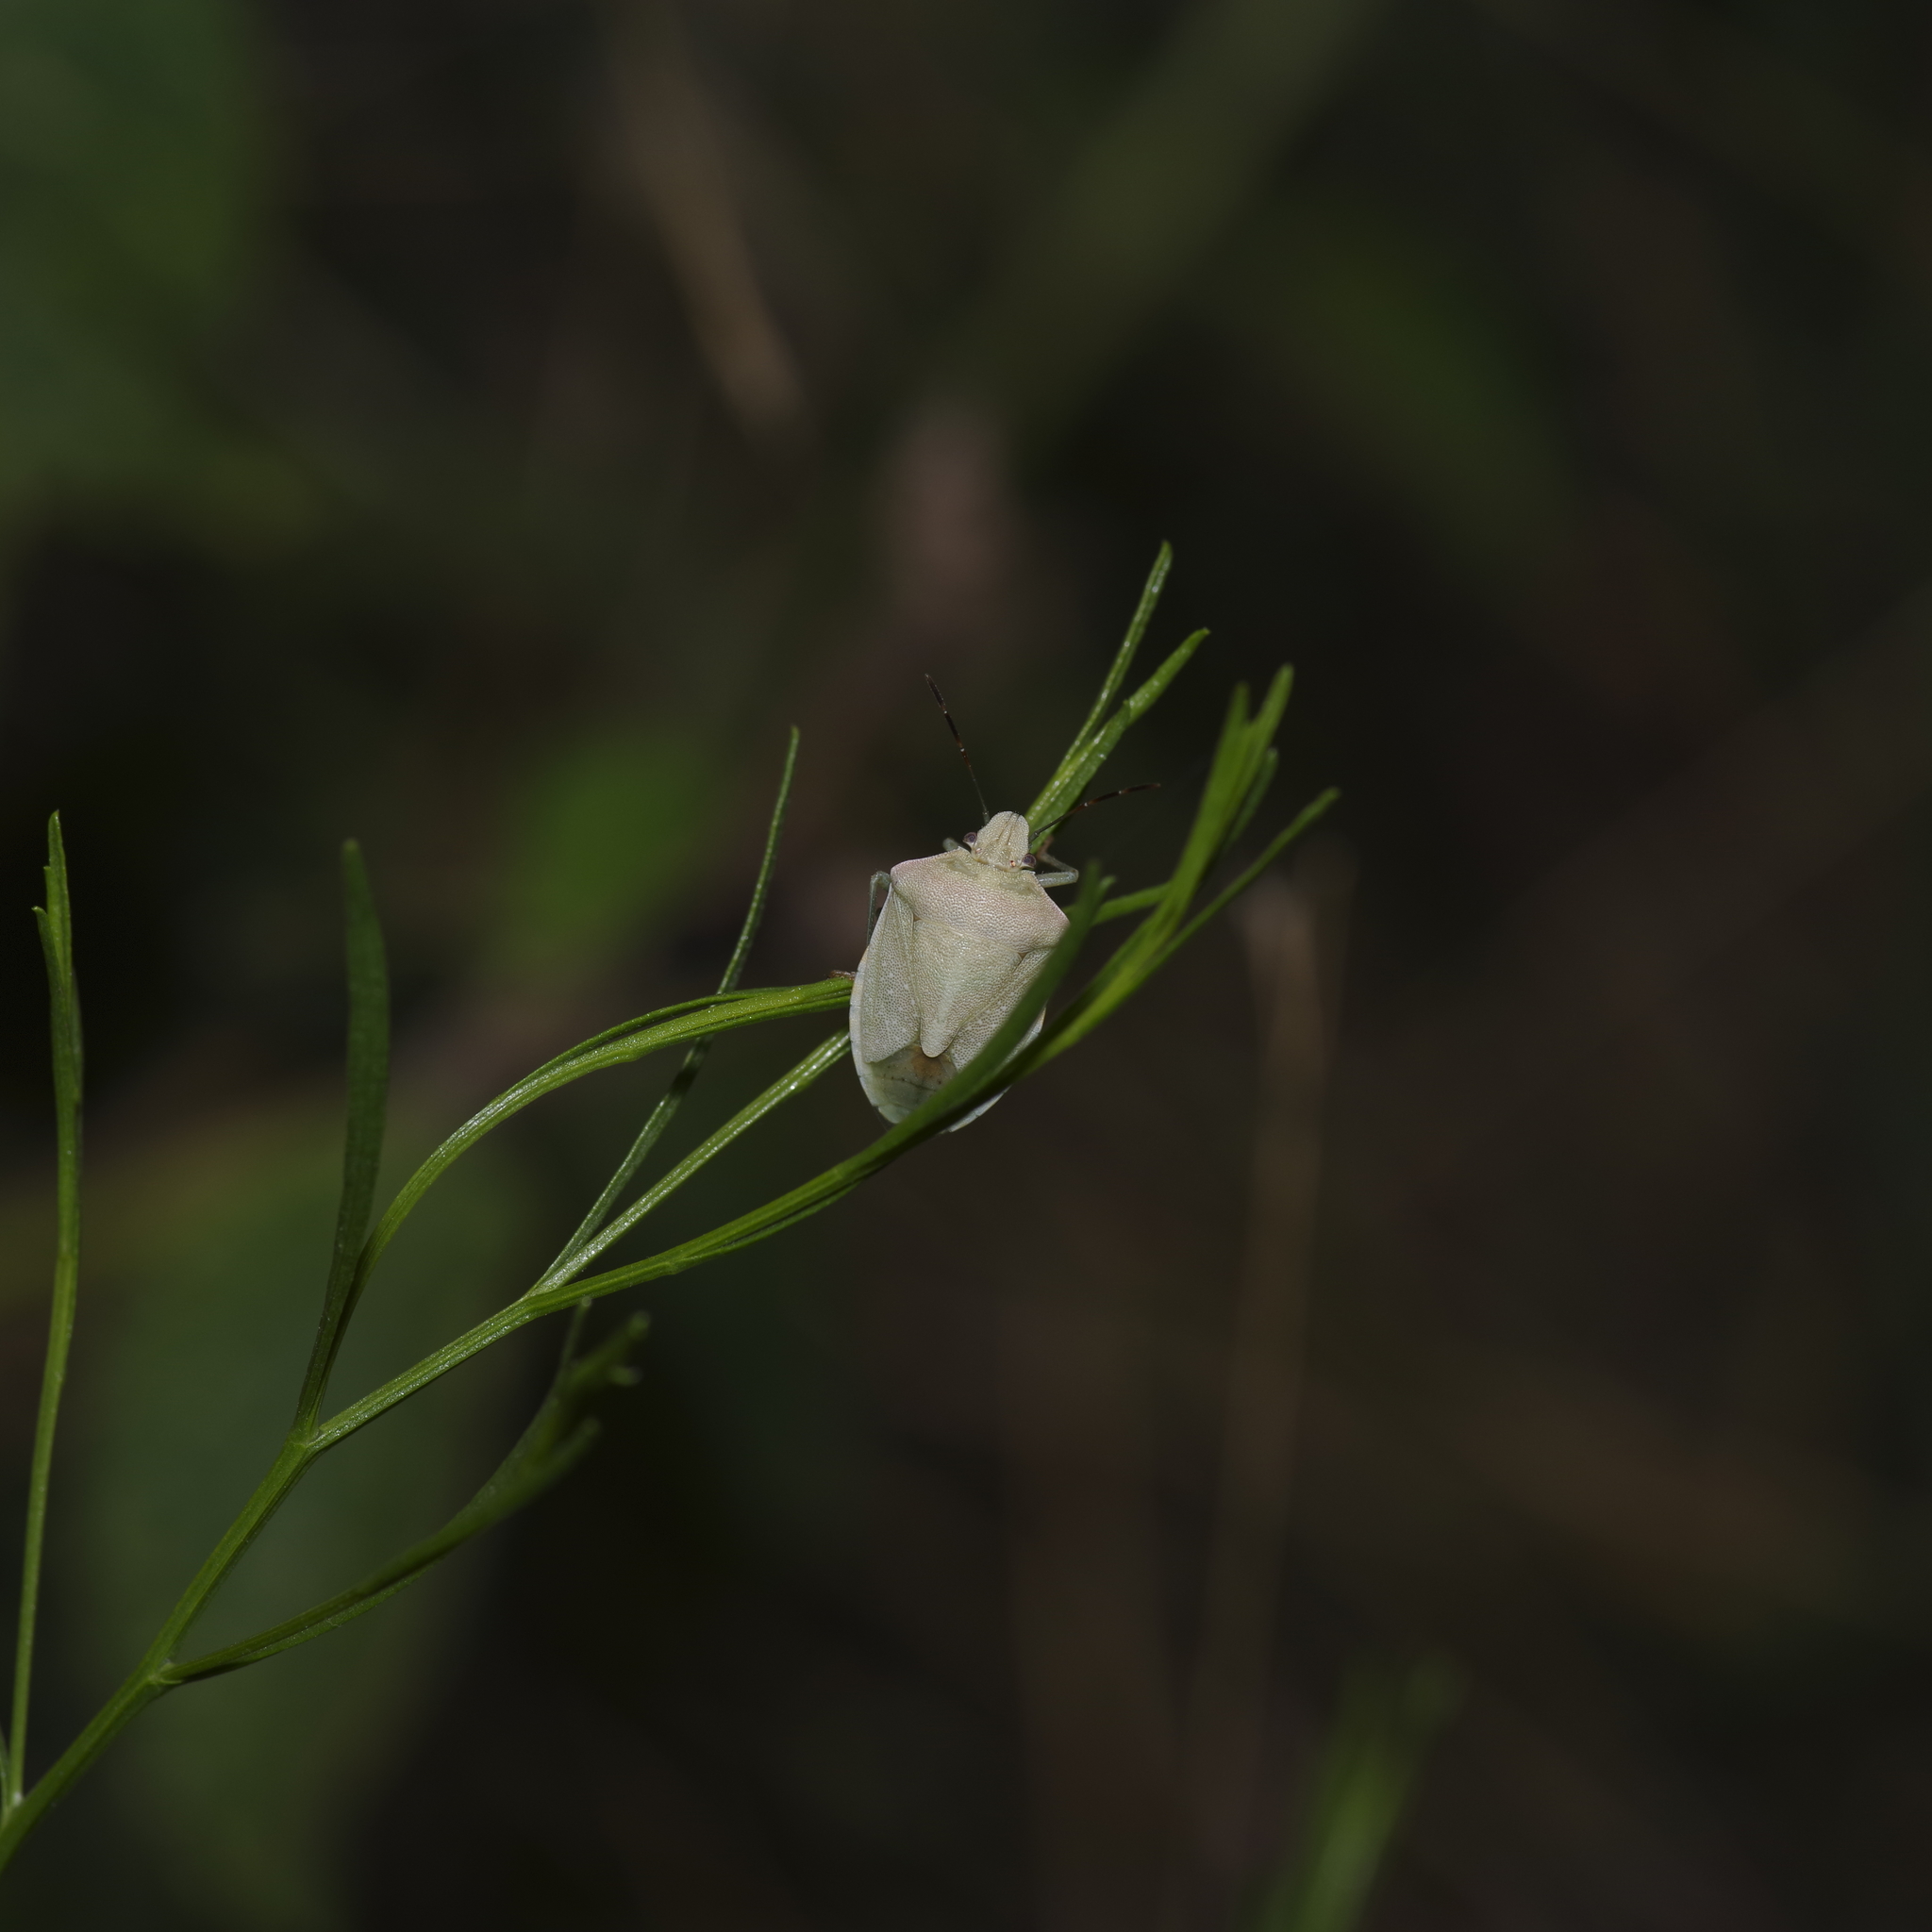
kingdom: Animalia
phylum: Arthropoda
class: Insecta
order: Hemiptera
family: Pentatomidae
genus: Thyanta
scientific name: Thyanta accerra
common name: Stink bug
